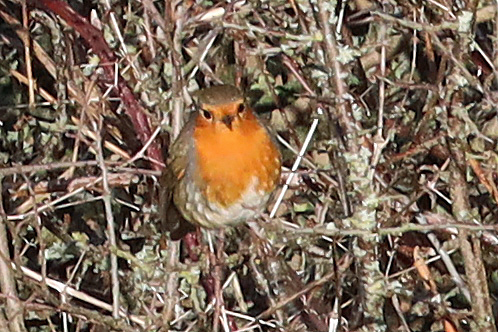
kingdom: Animalia
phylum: Chordata
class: Aves
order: Passeriformes
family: Muscicapidae
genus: Erithacus
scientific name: Erithacus rubecula
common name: European robin
